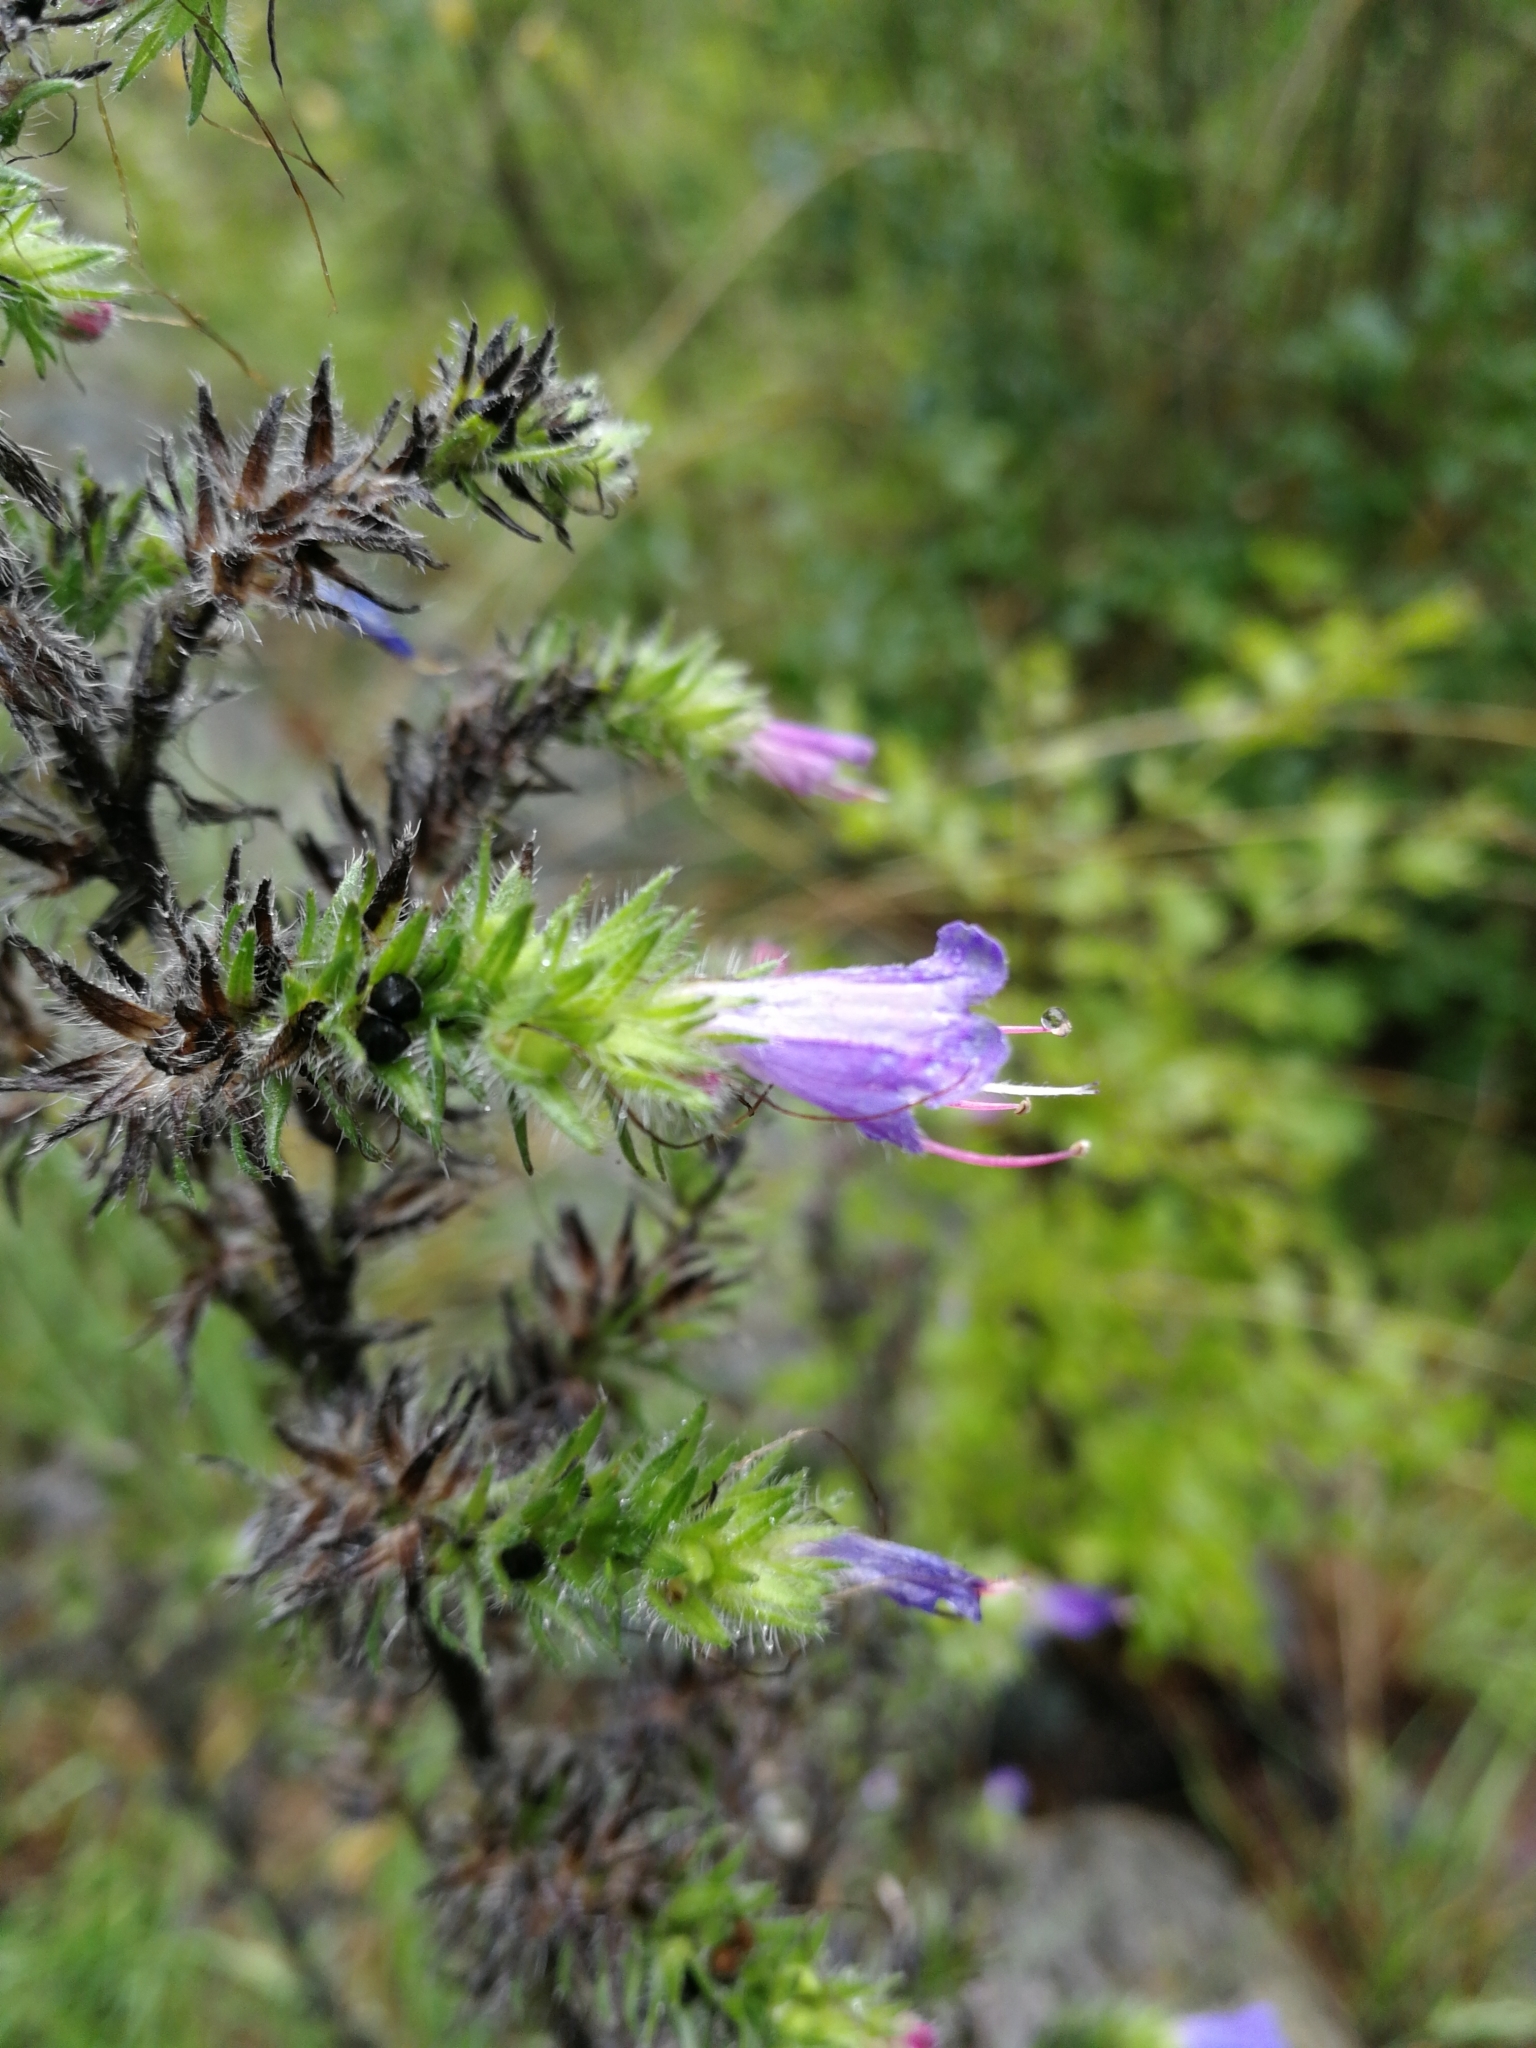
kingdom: Plantae
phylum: Tracheophyta
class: Magnoliopsida
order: Boraginales
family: Boraginaceae
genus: Echium
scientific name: Echium vulgare
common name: Common viper's bugloss
